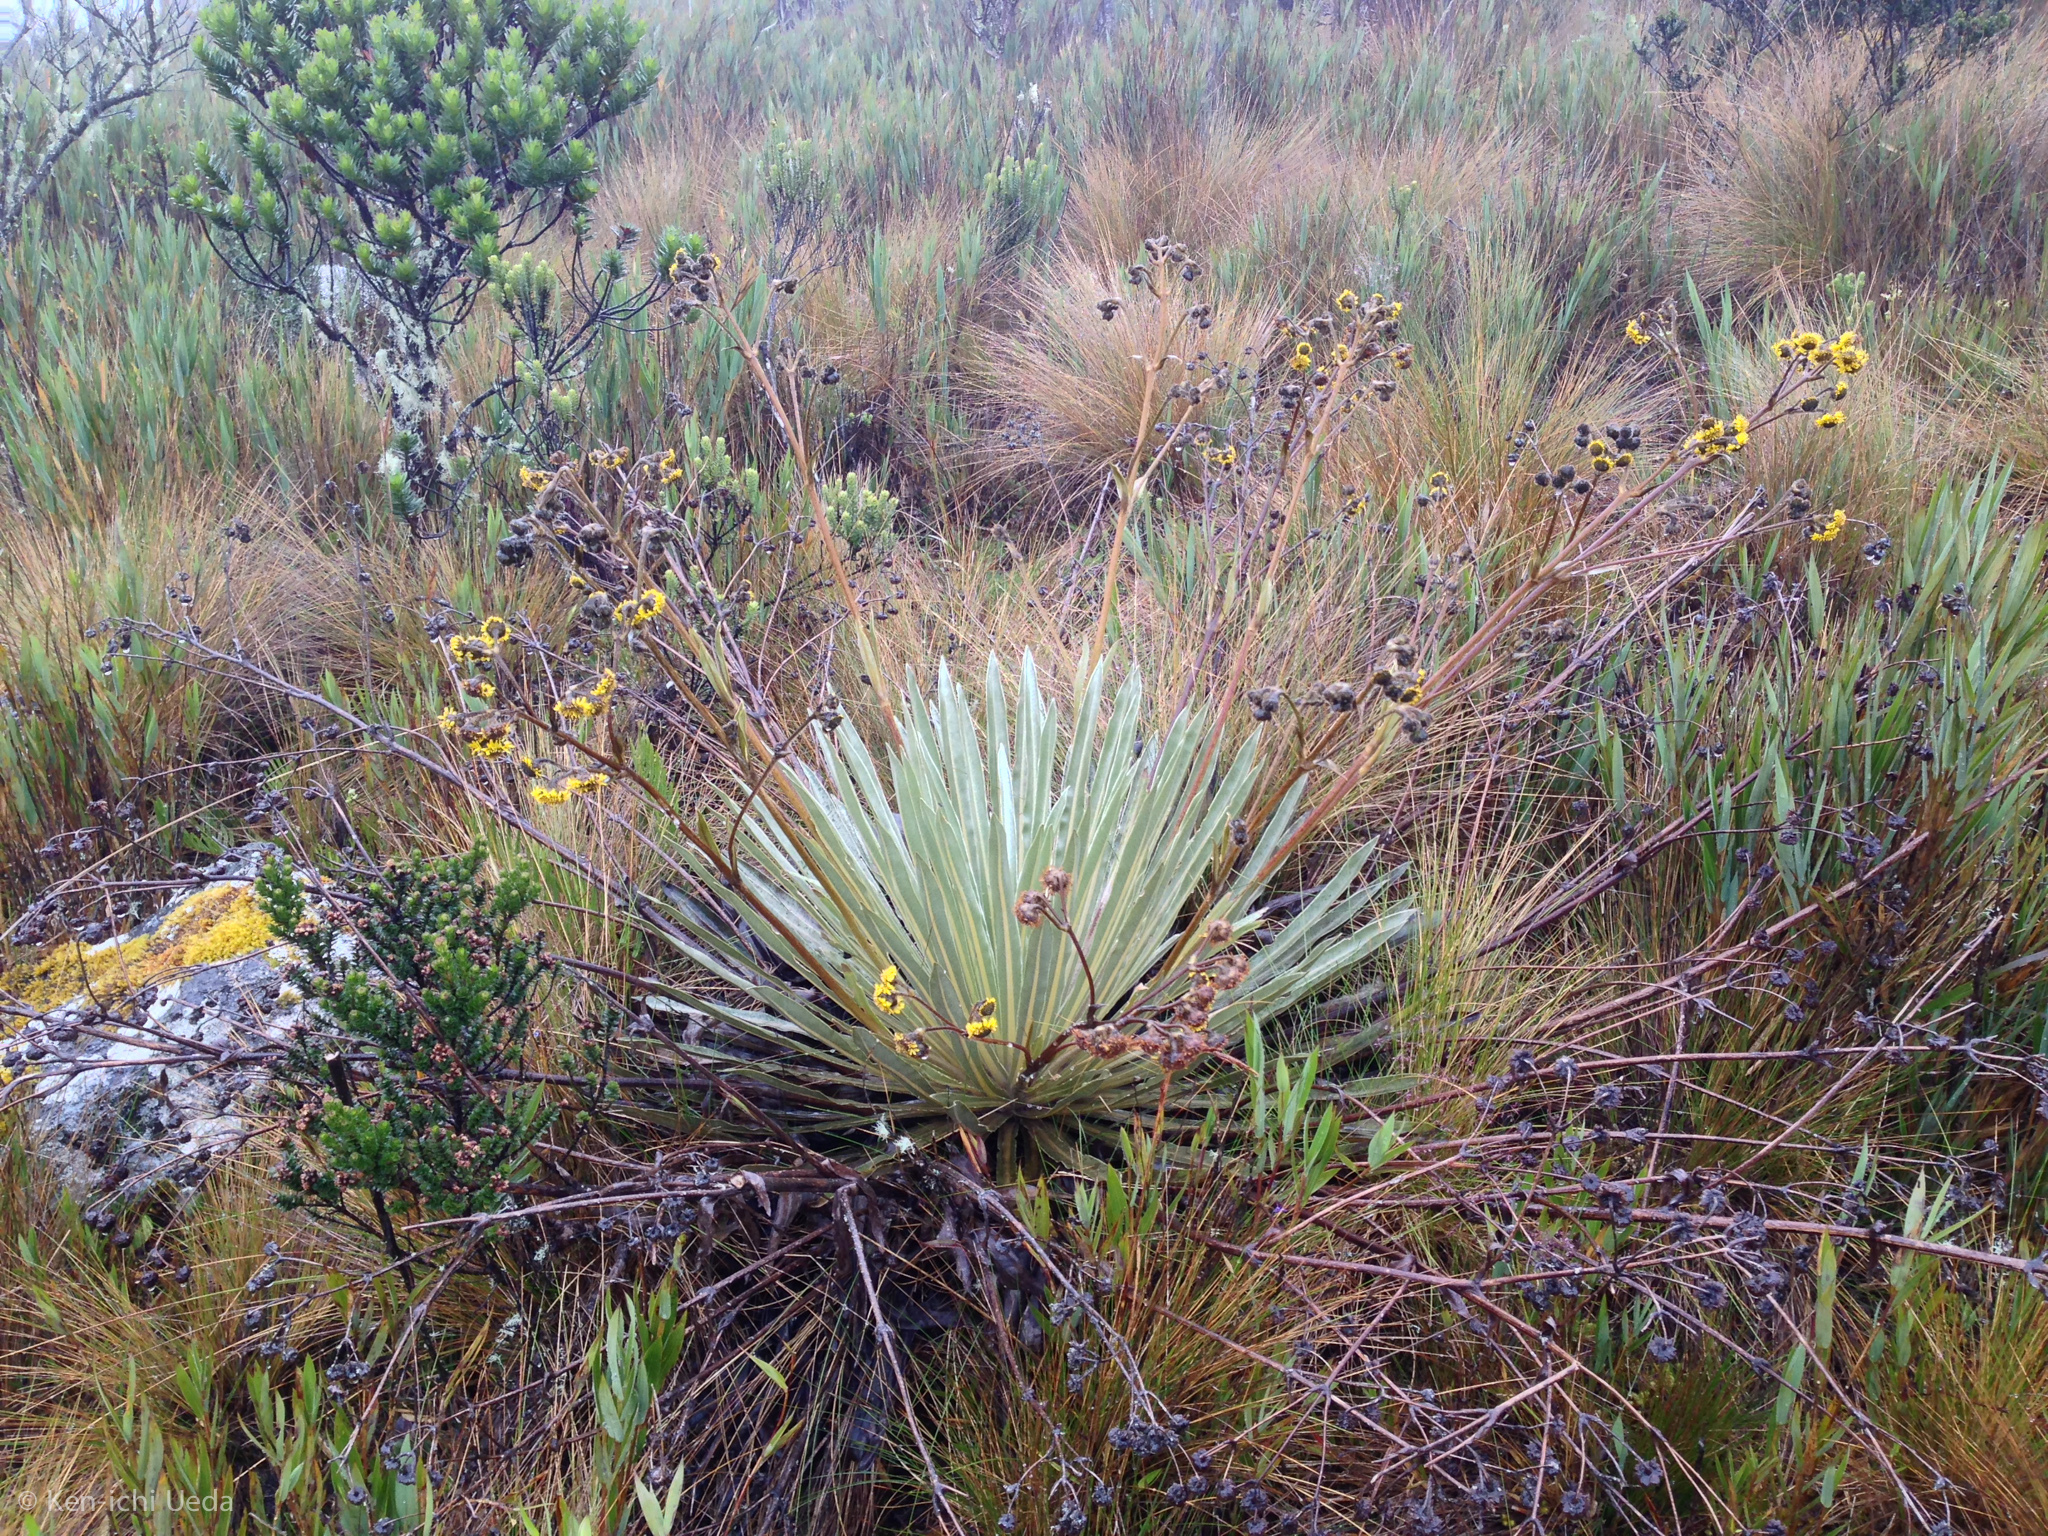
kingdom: Plantae
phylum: Tracheophyta
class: Magnoliopsida
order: Asterales
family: Asteraceae
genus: Espeletia
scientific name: Espeletia argentea
